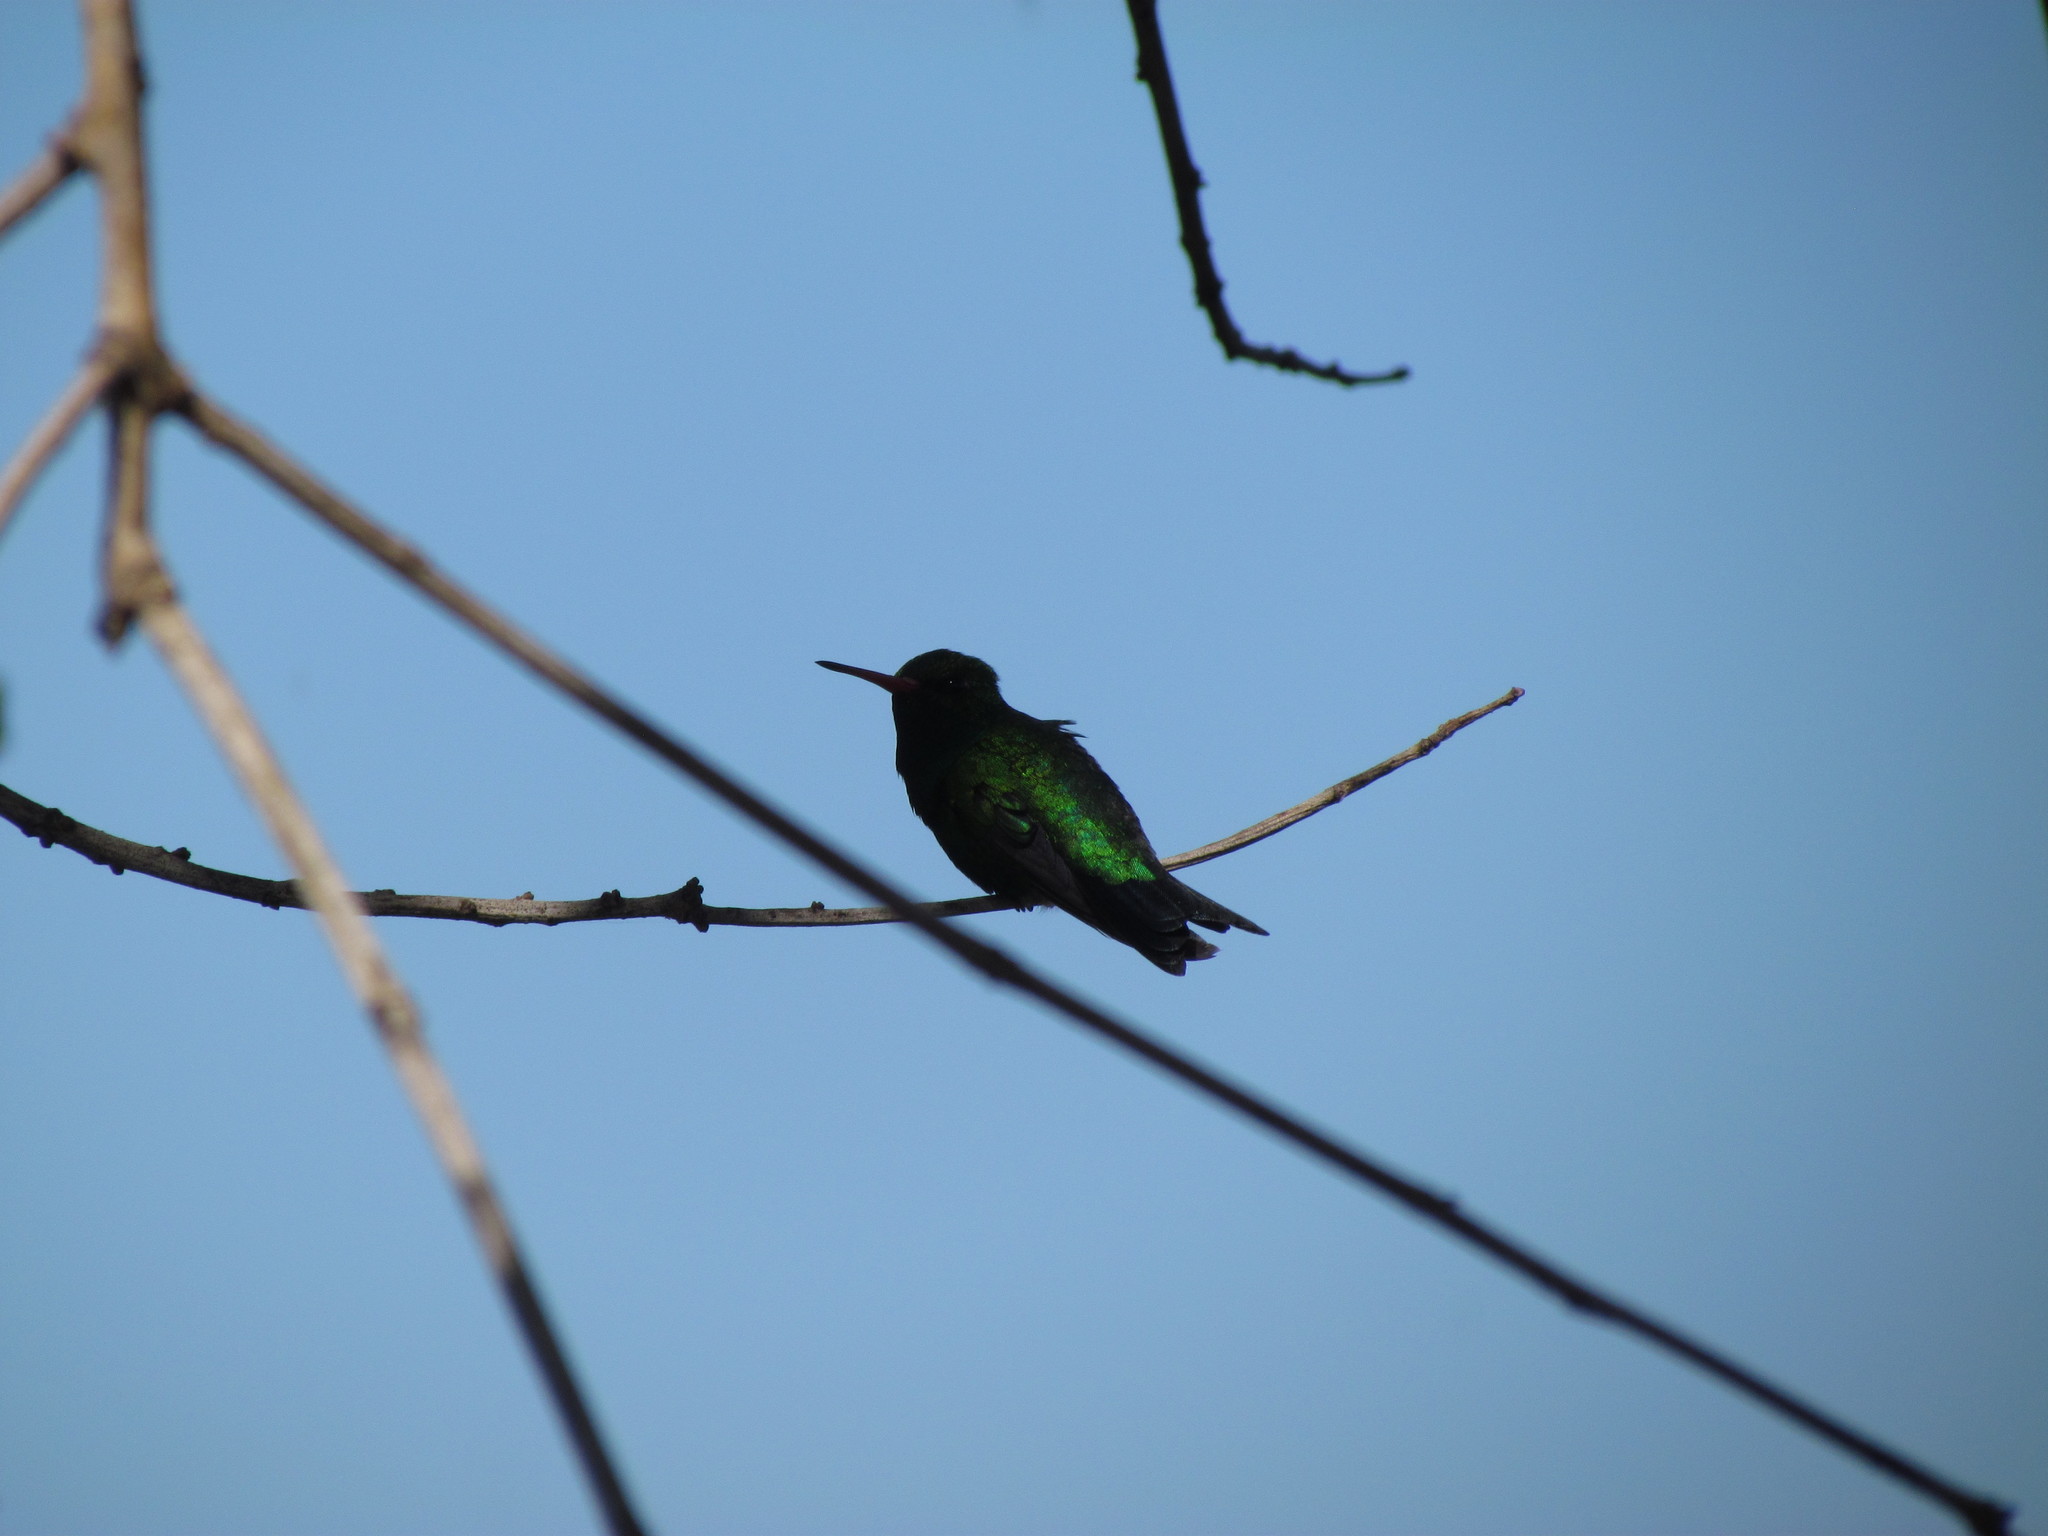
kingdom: Animalia
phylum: Chordata
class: Aves
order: Apodiformes
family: Trochilidae
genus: Chlorostilbon
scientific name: Chlorostilbon lucidus
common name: Glittering-bellied emerald
